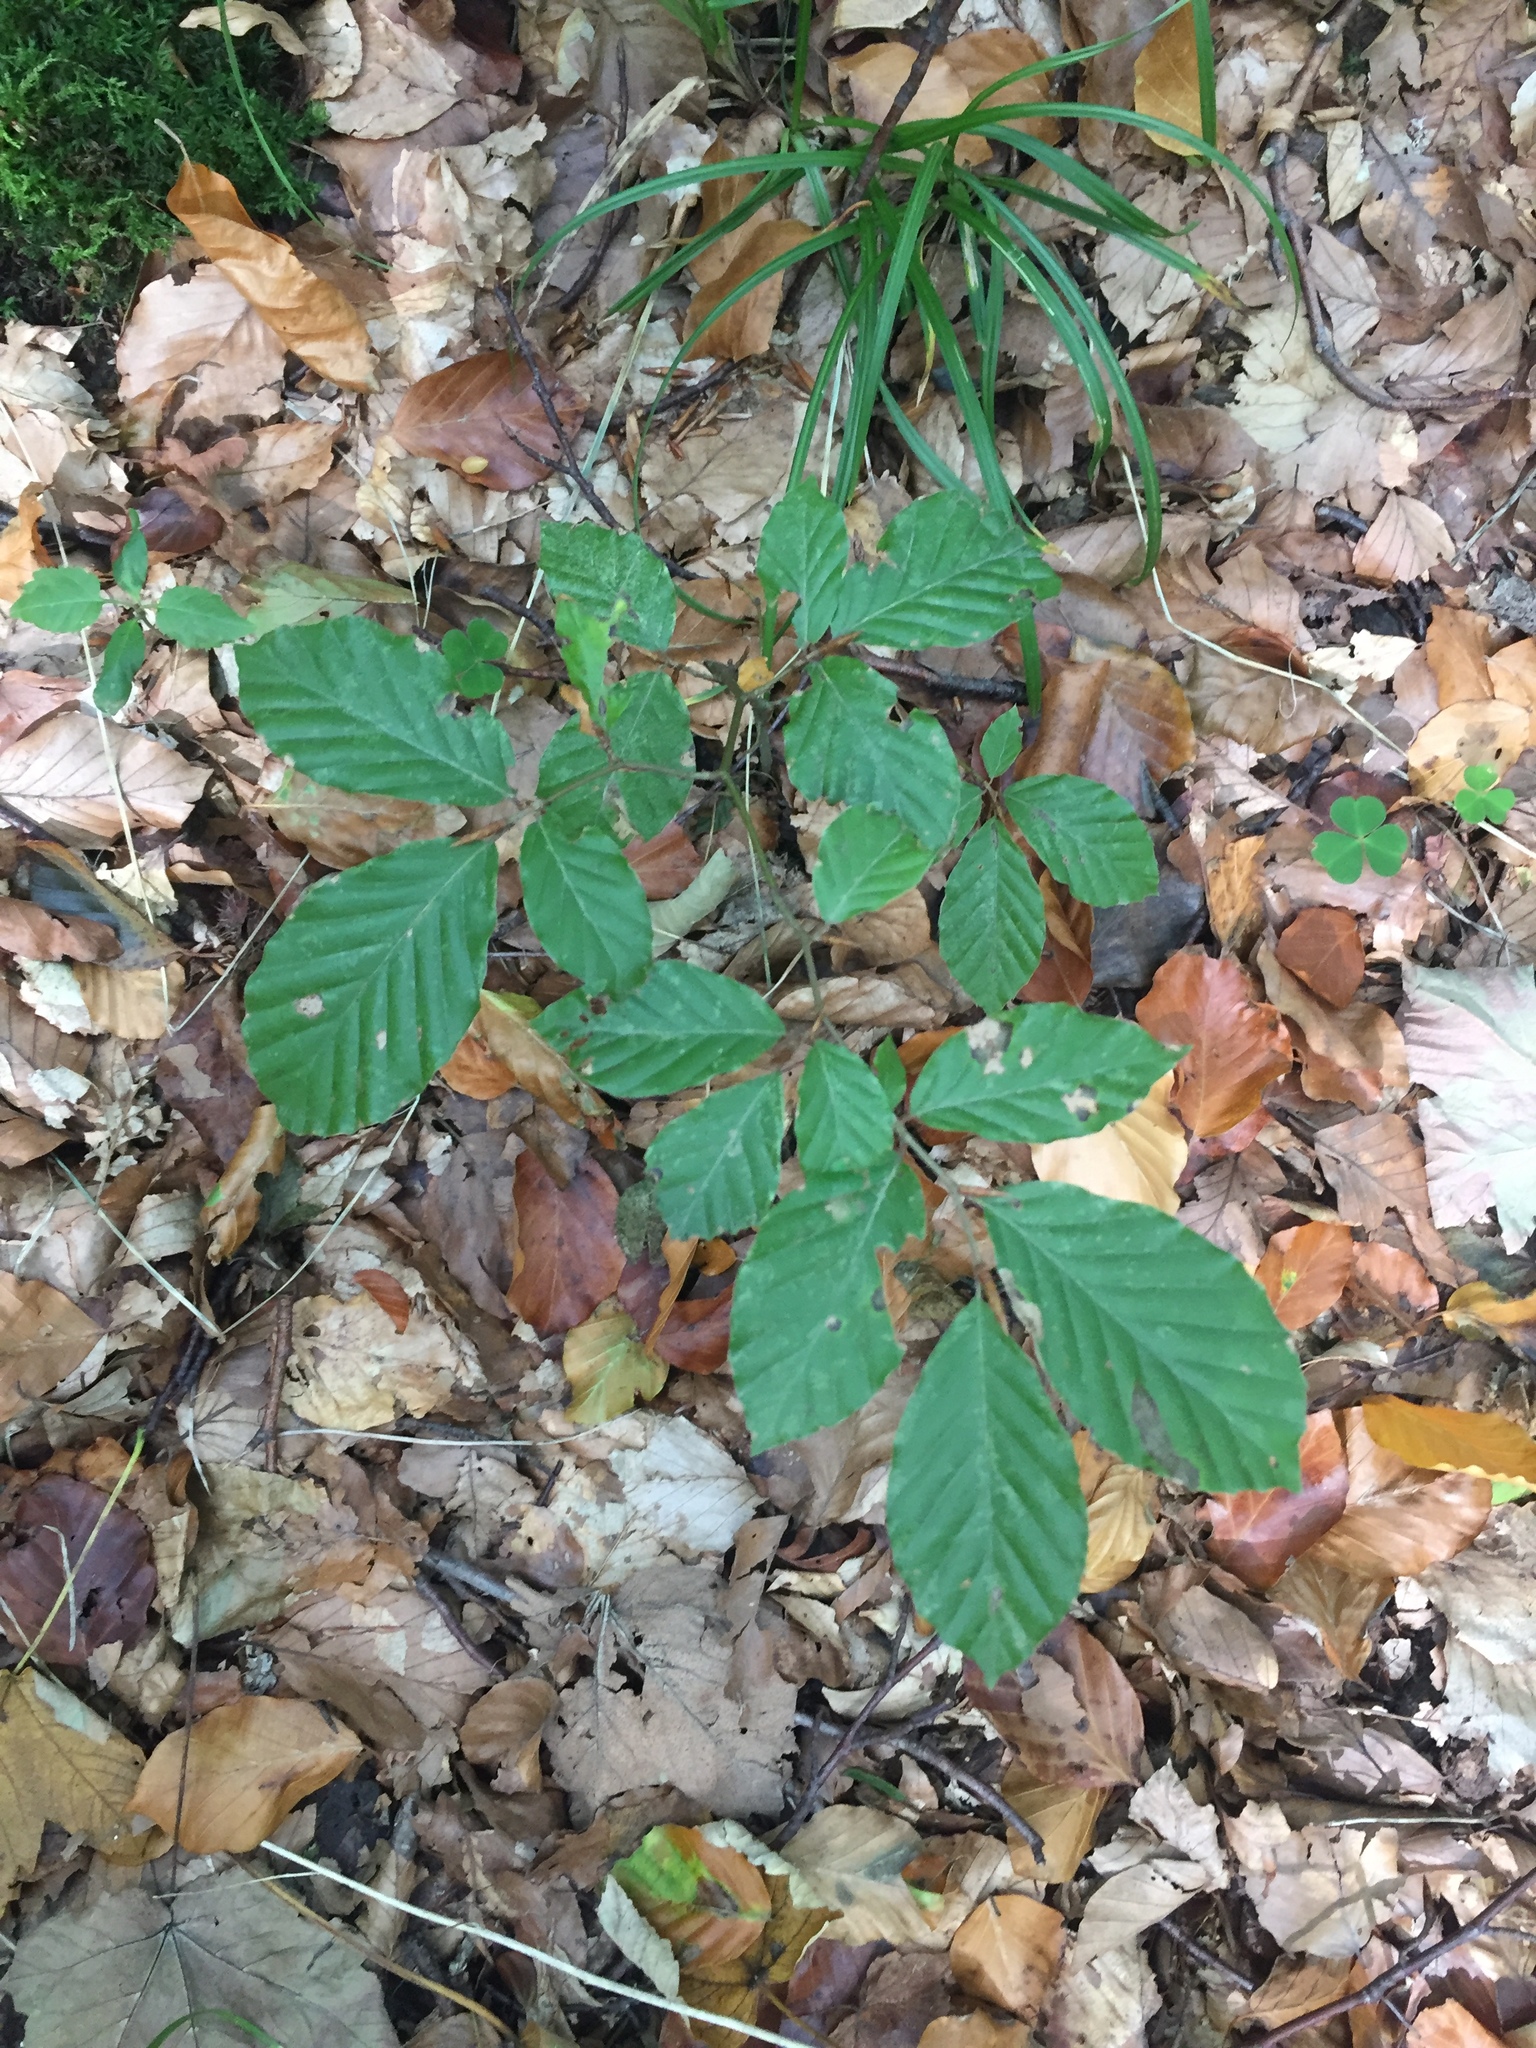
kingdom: Plantae
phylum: Tracheophyta
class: Magnoliopsida
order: Fagales
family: Fagaceae
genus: Fagus
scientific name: Fagus sylvatica
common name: Beech
